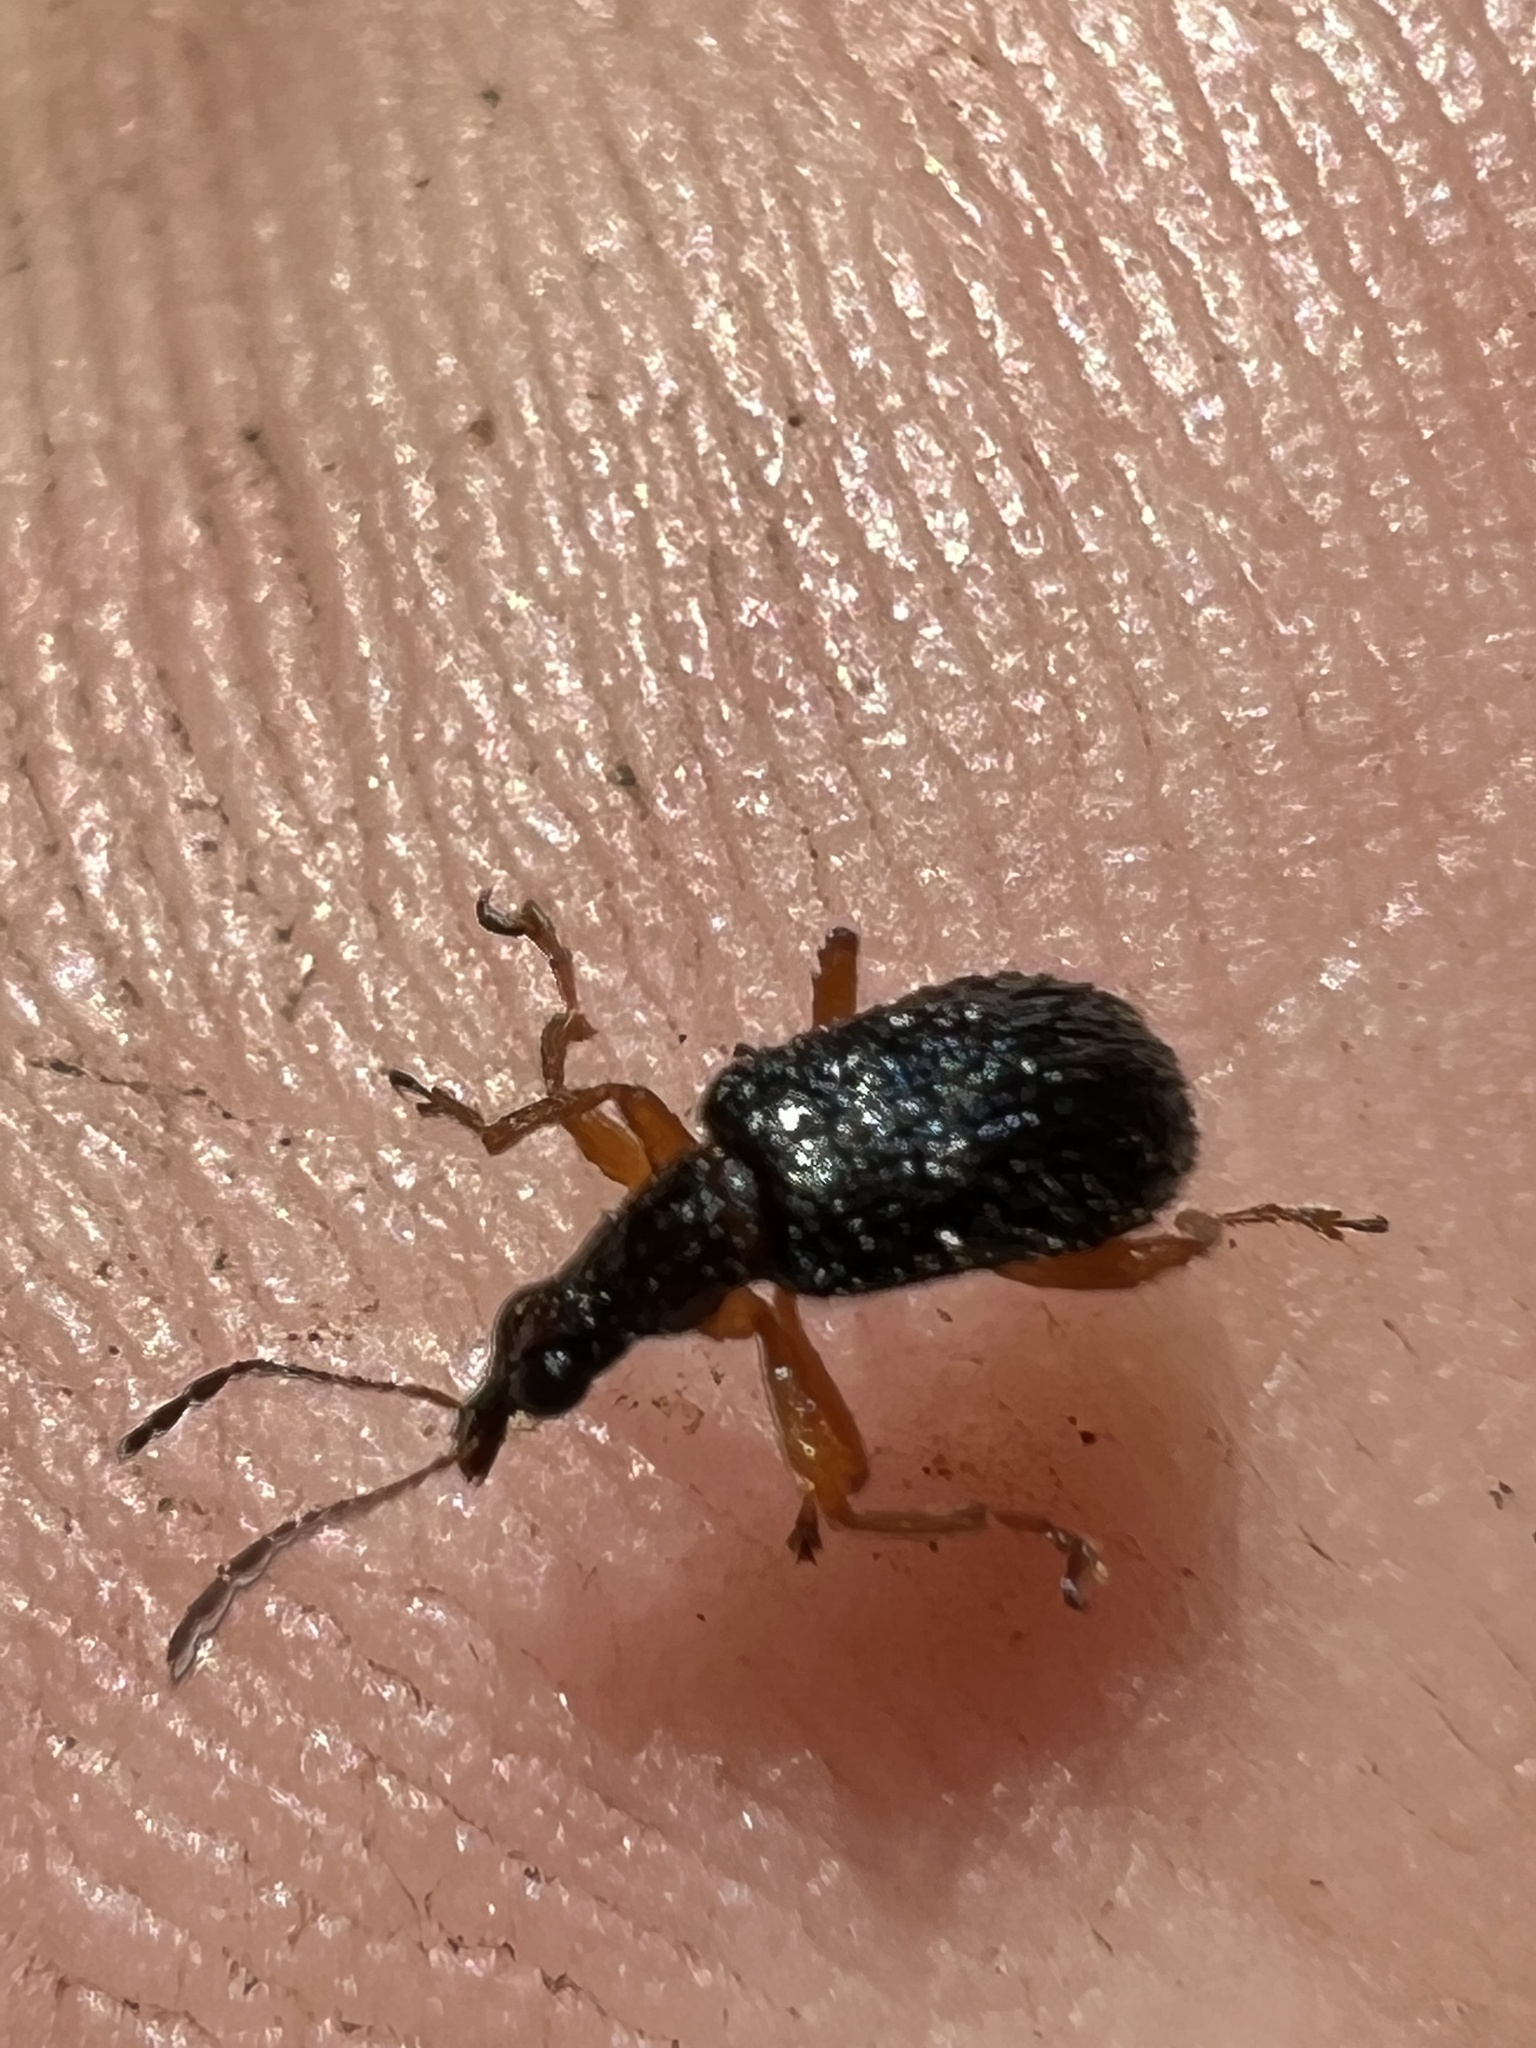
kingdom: Animalia
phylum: Arthropoda
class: Insecta
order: Coleoptera
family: Attelabidae
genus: Eugnamptus
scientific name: Eugnamptus angustatus
